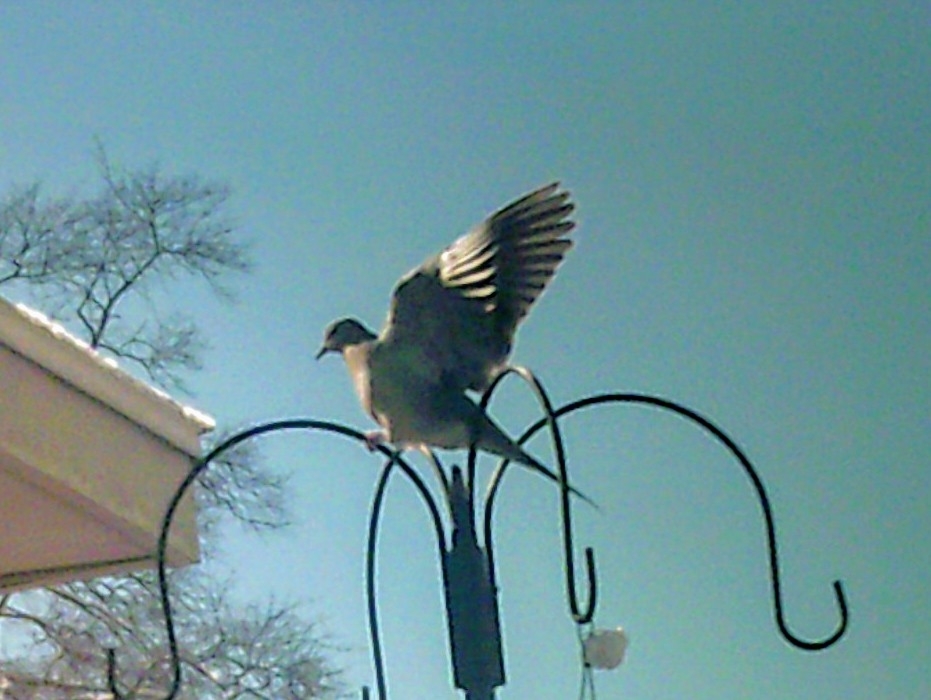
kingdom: Animalia
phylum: Chordata
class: Aves
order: Columbiformes
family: Columbidae
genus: Zenaida
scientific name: Zenaida macroura
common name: Mourning dove
